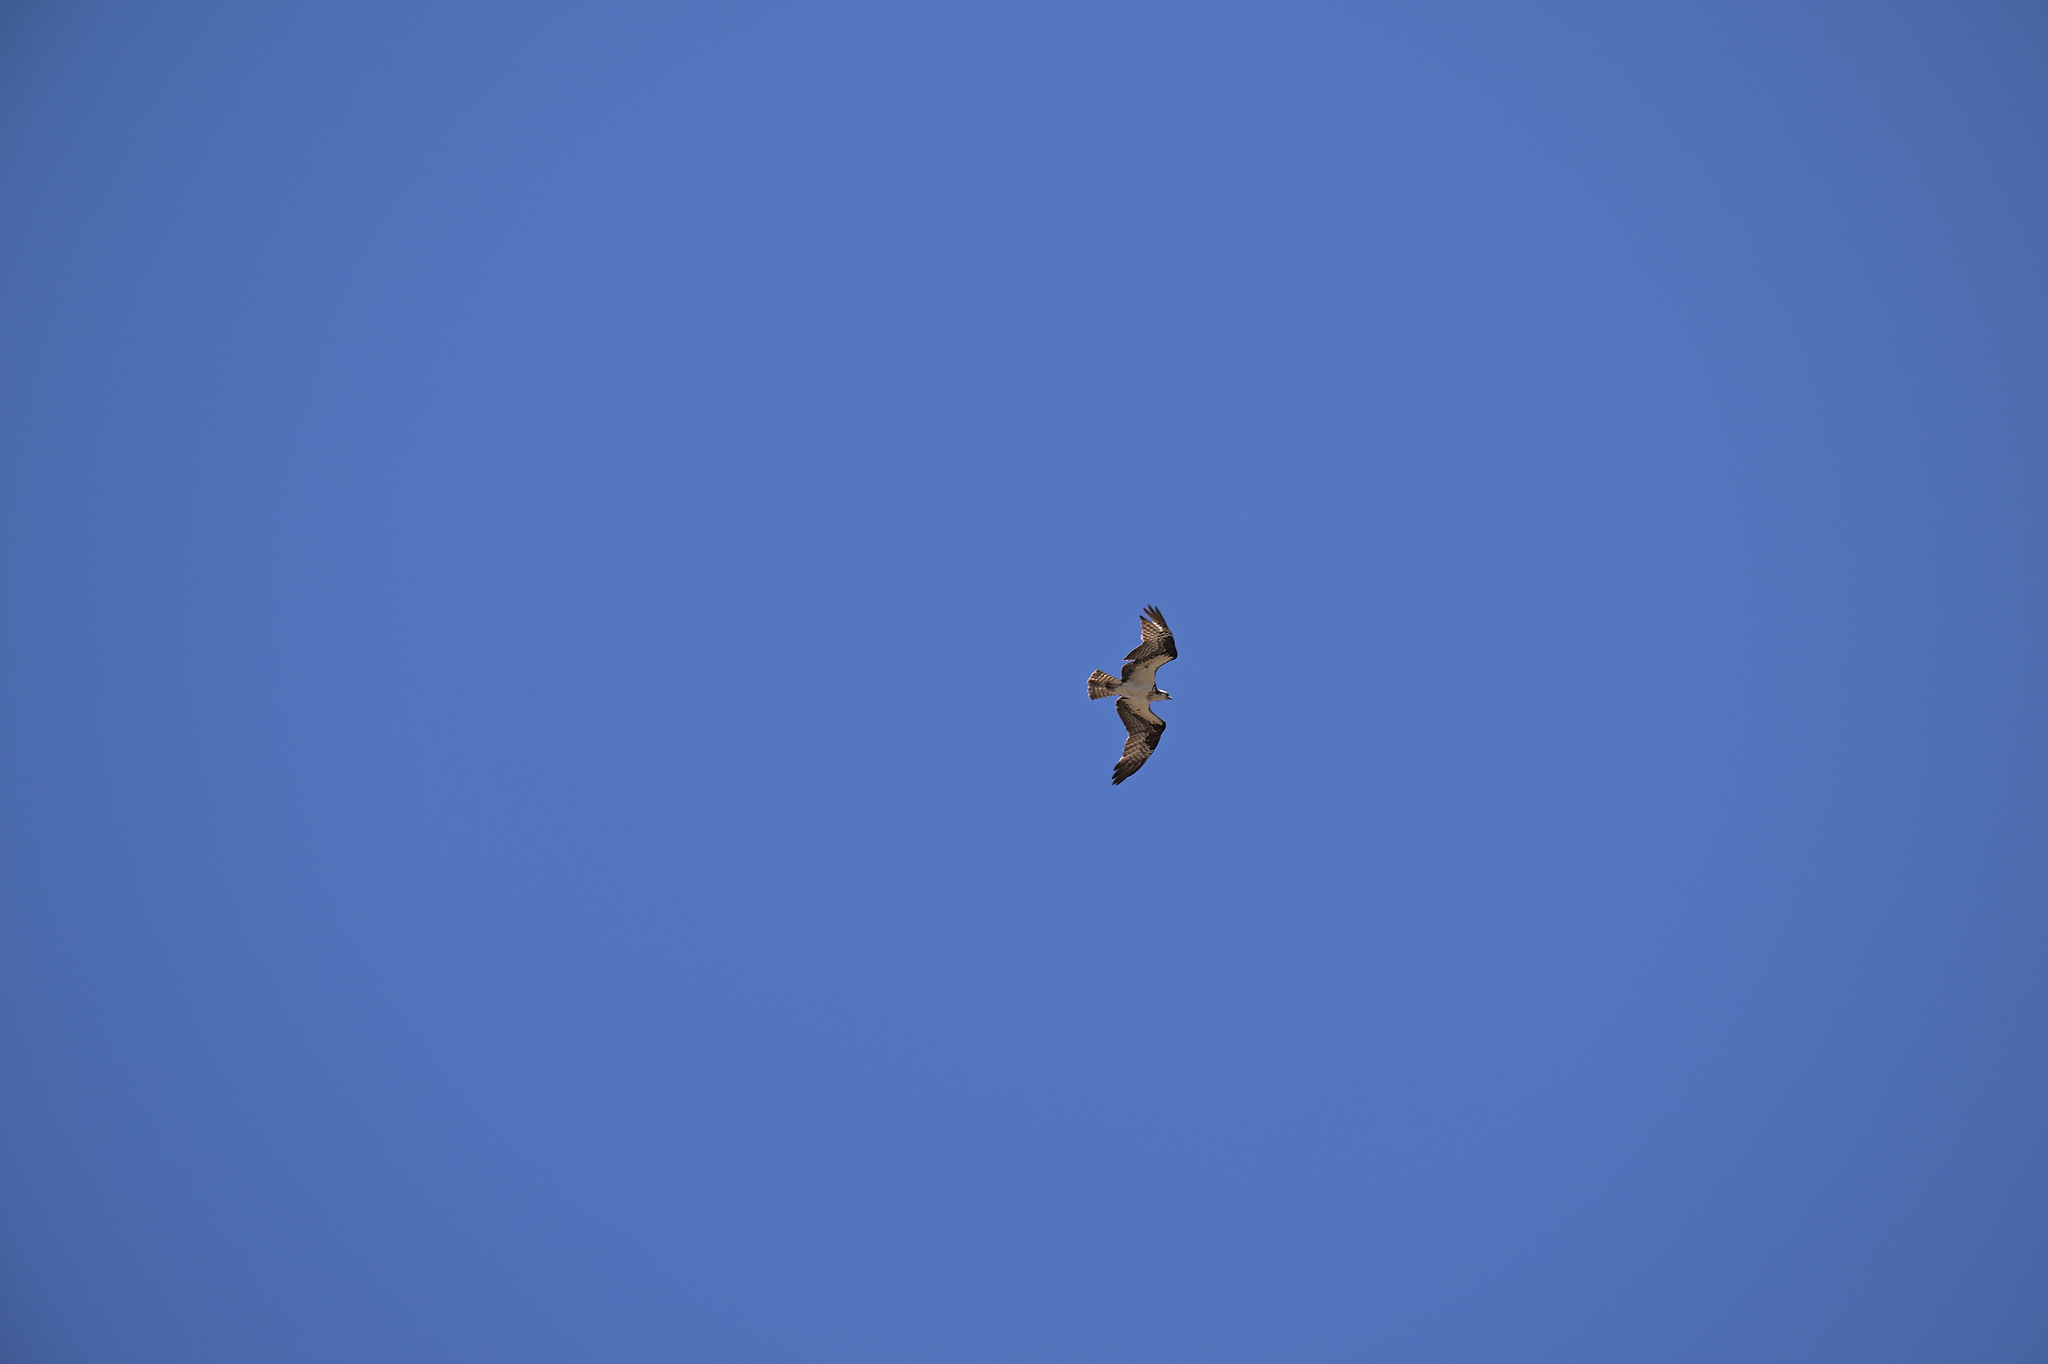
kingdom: Animalia
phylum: Chordata
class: Aves
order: Accipitriformes
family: Pandionidae
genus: Pandion
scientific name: Pandion haliaetus
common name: Osprey
